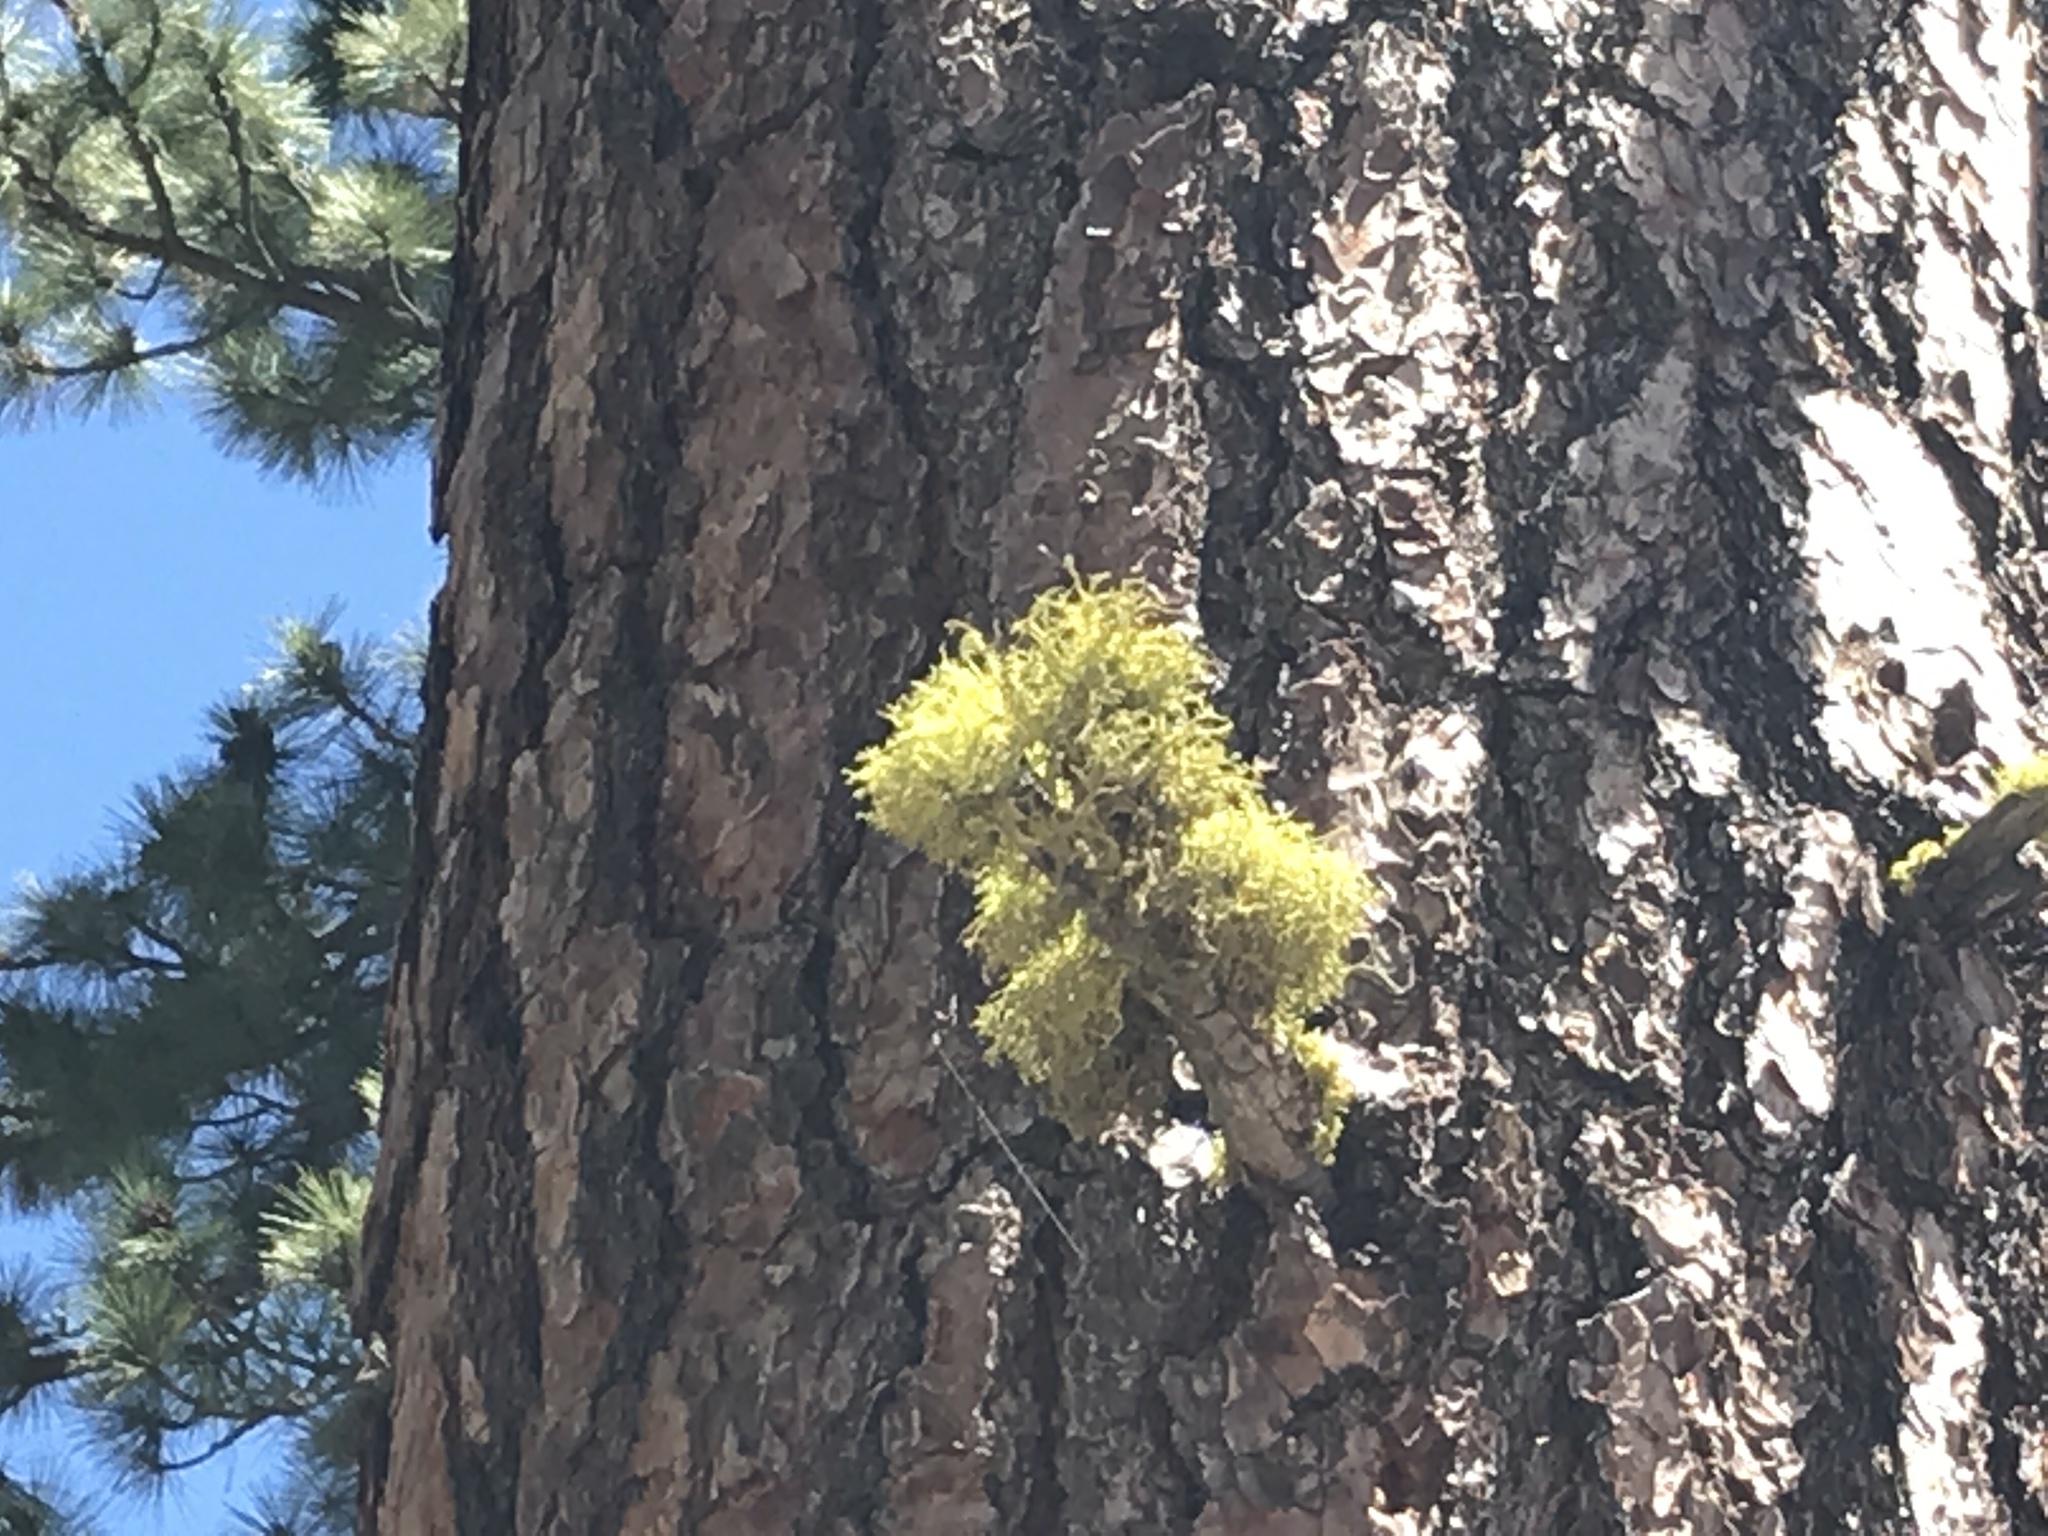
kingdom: Plantae
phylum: Tracheophyta
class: Pinopsida
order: Pinales
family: Pinaceae
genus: Pinus
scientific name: Pinus ponderosa
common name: Western yellow-pine
